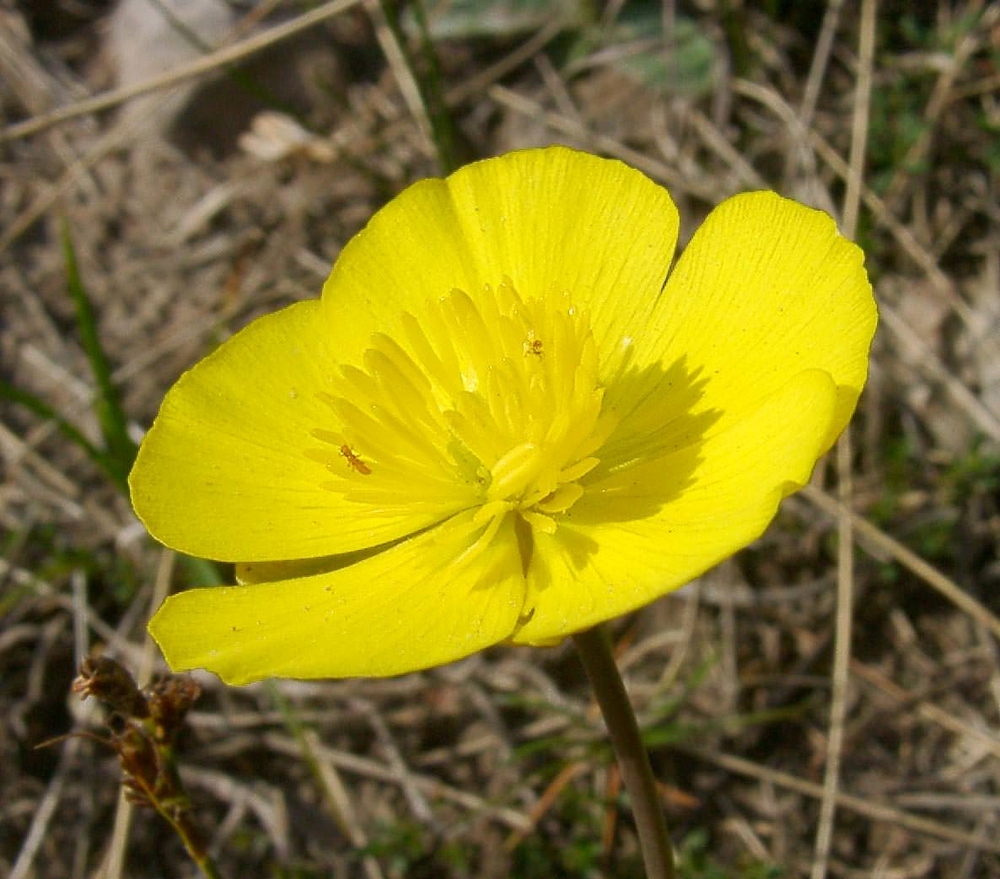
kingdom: Plantae
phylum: Tracheophyta
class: Magnoliopsida
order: Ranunculales
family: Ranunculaceae
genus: Ranunculus
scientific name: Ranunculus gramineus
